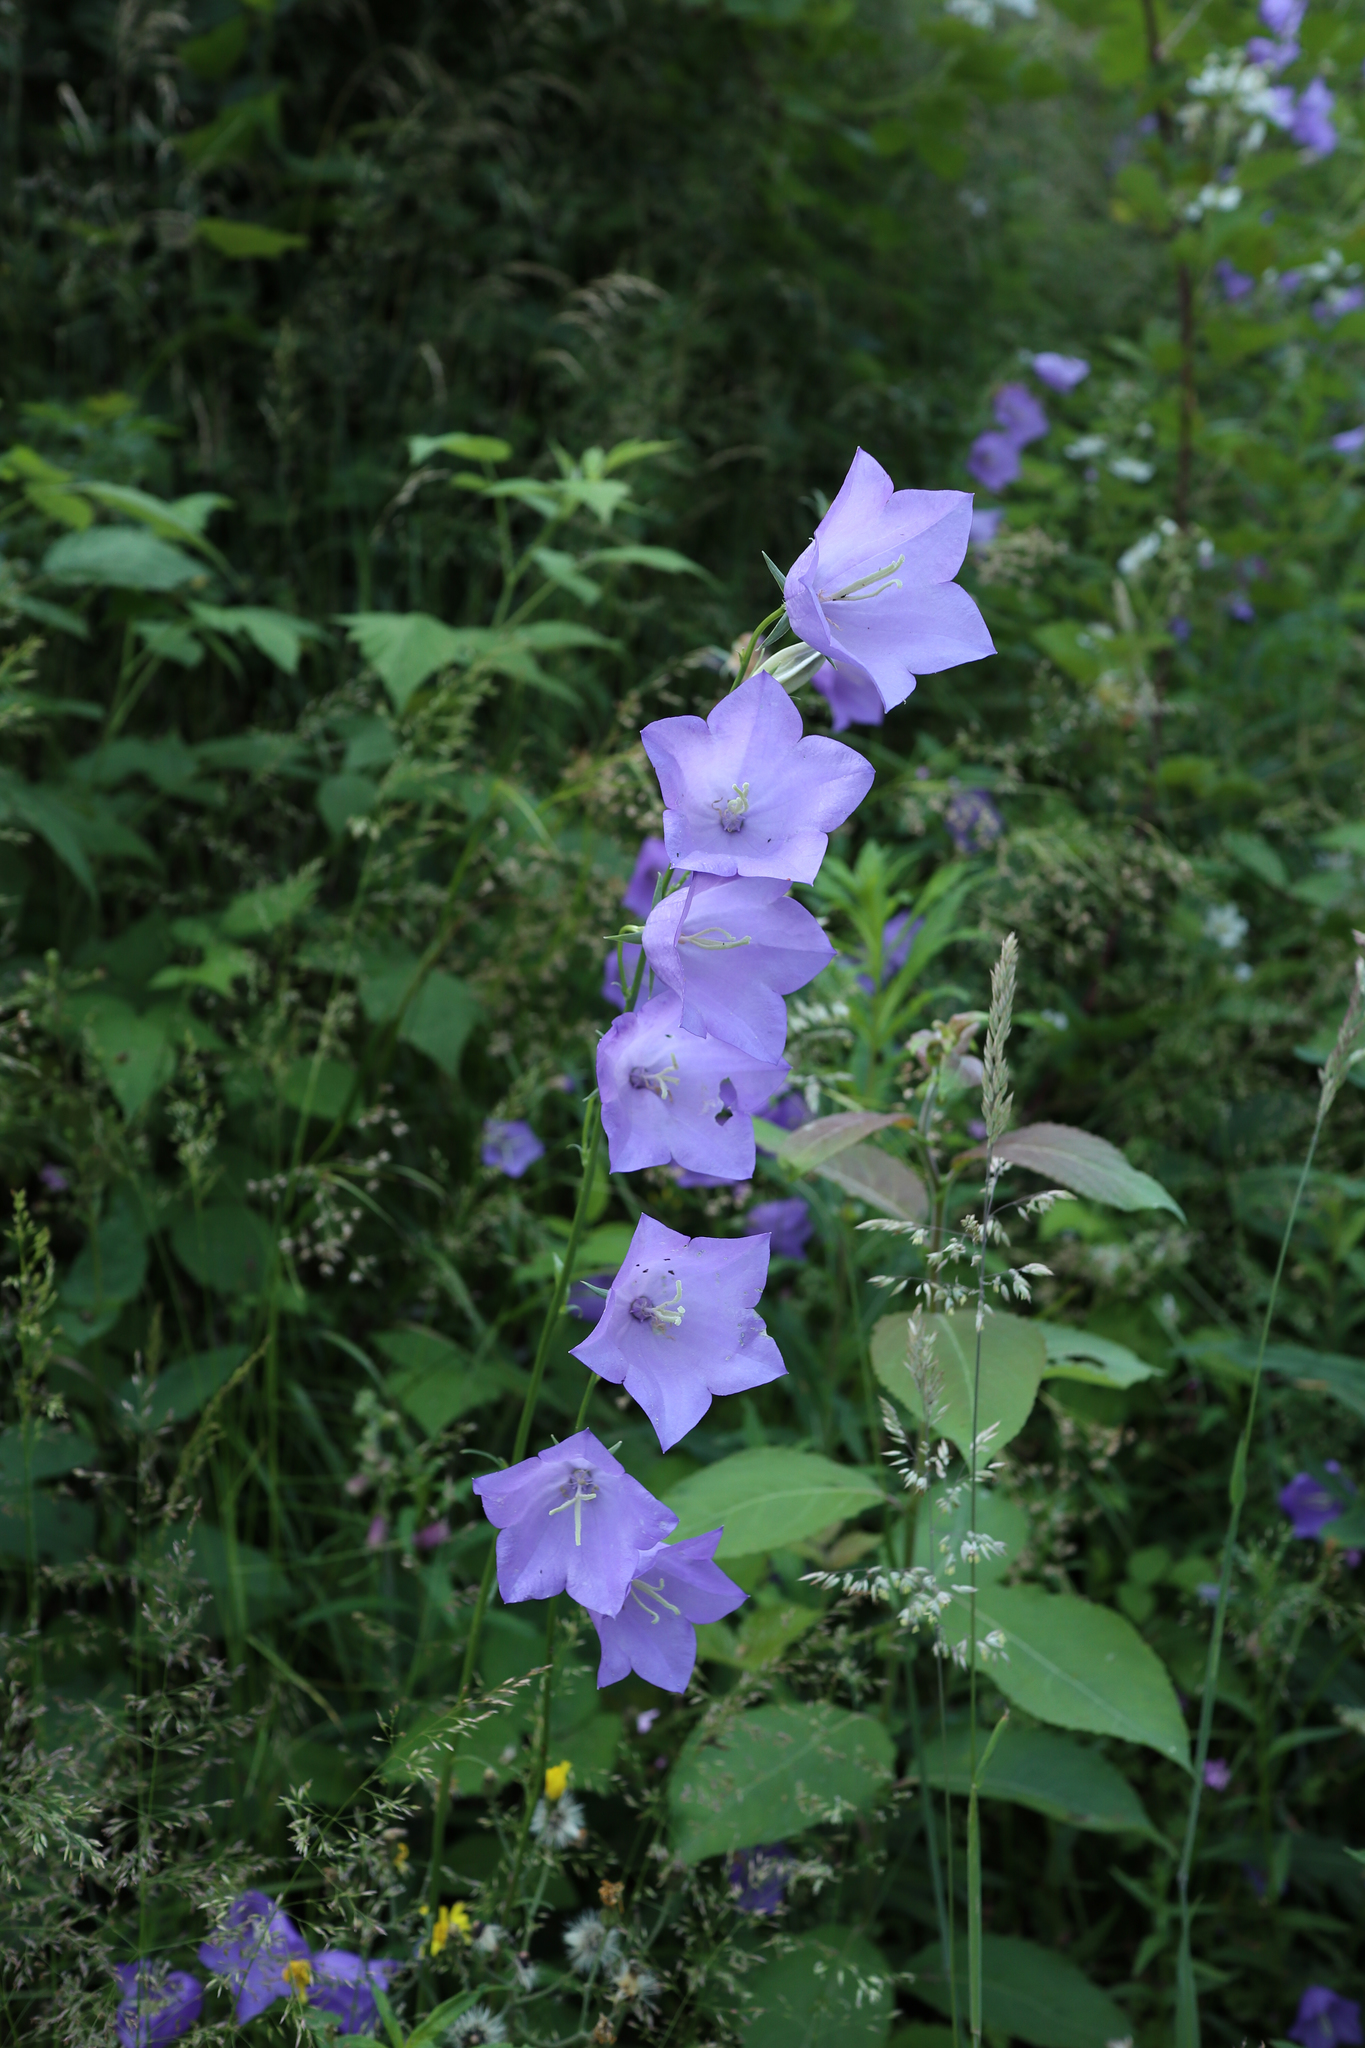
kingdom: Plantae
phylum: Tracheophyta
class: Magnoliopsida
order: Asterales
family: Campanulaceae
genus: Campanula
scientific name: Campanula persicifolia
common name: Peach-leaved bellflower
